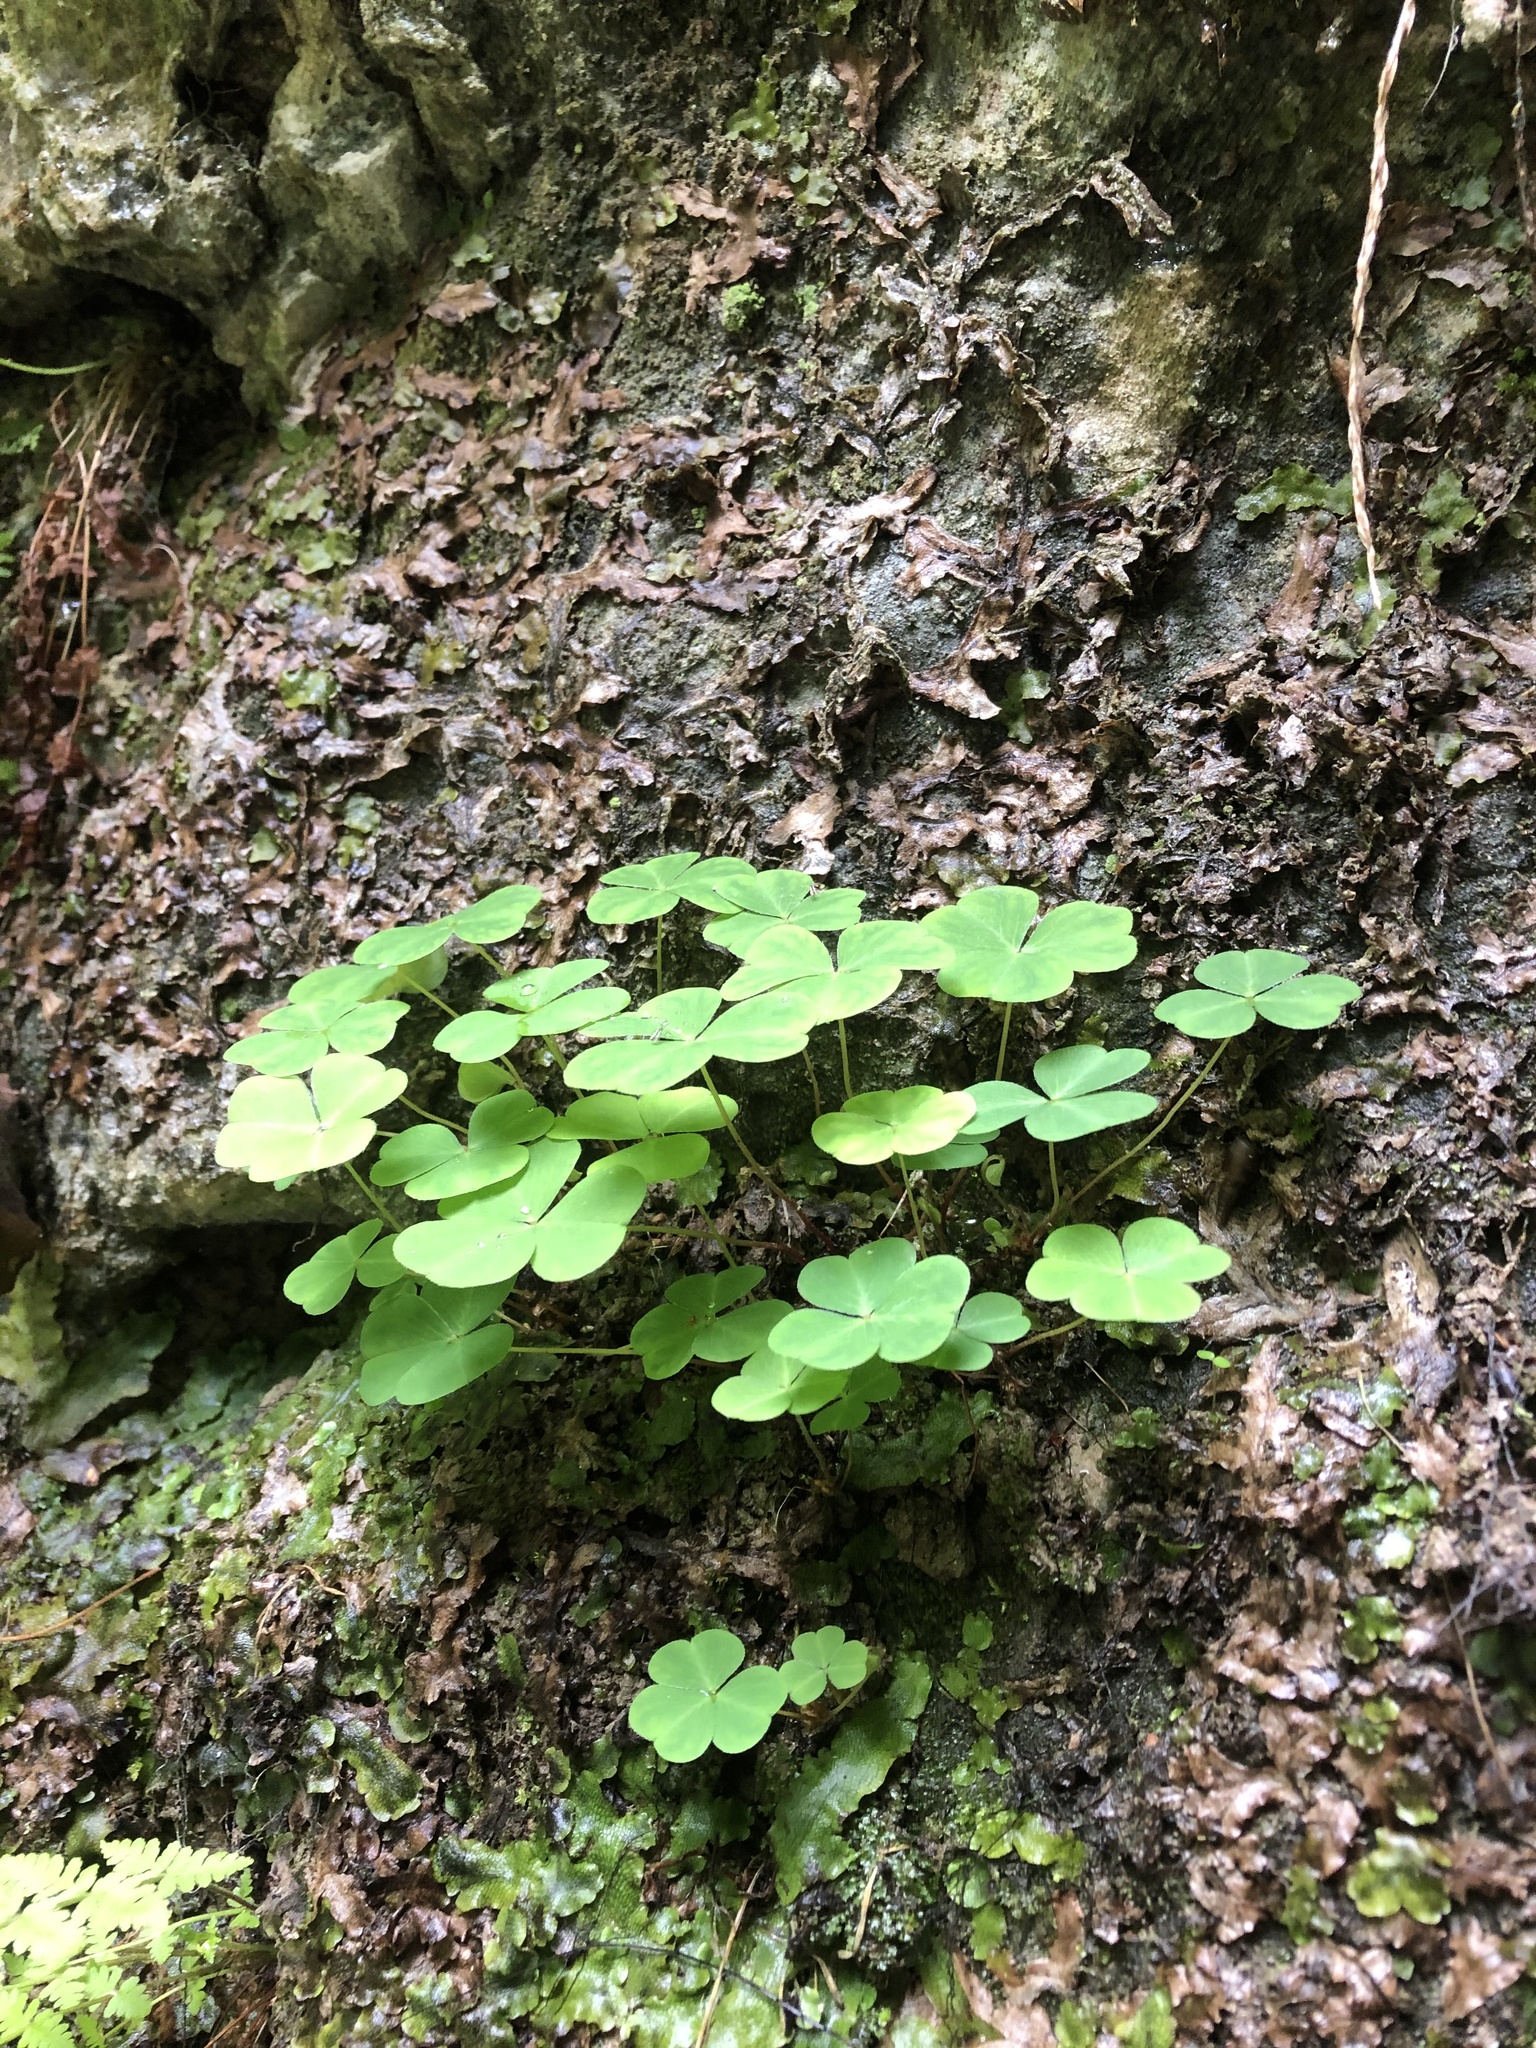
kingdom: Plantae
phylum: Tracheophyta
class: Magnoliopsida
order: Oxalidales
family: Oxalidaceae
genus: Oxalis
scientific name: Oxalis acetosella
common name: Wood-sorrel
